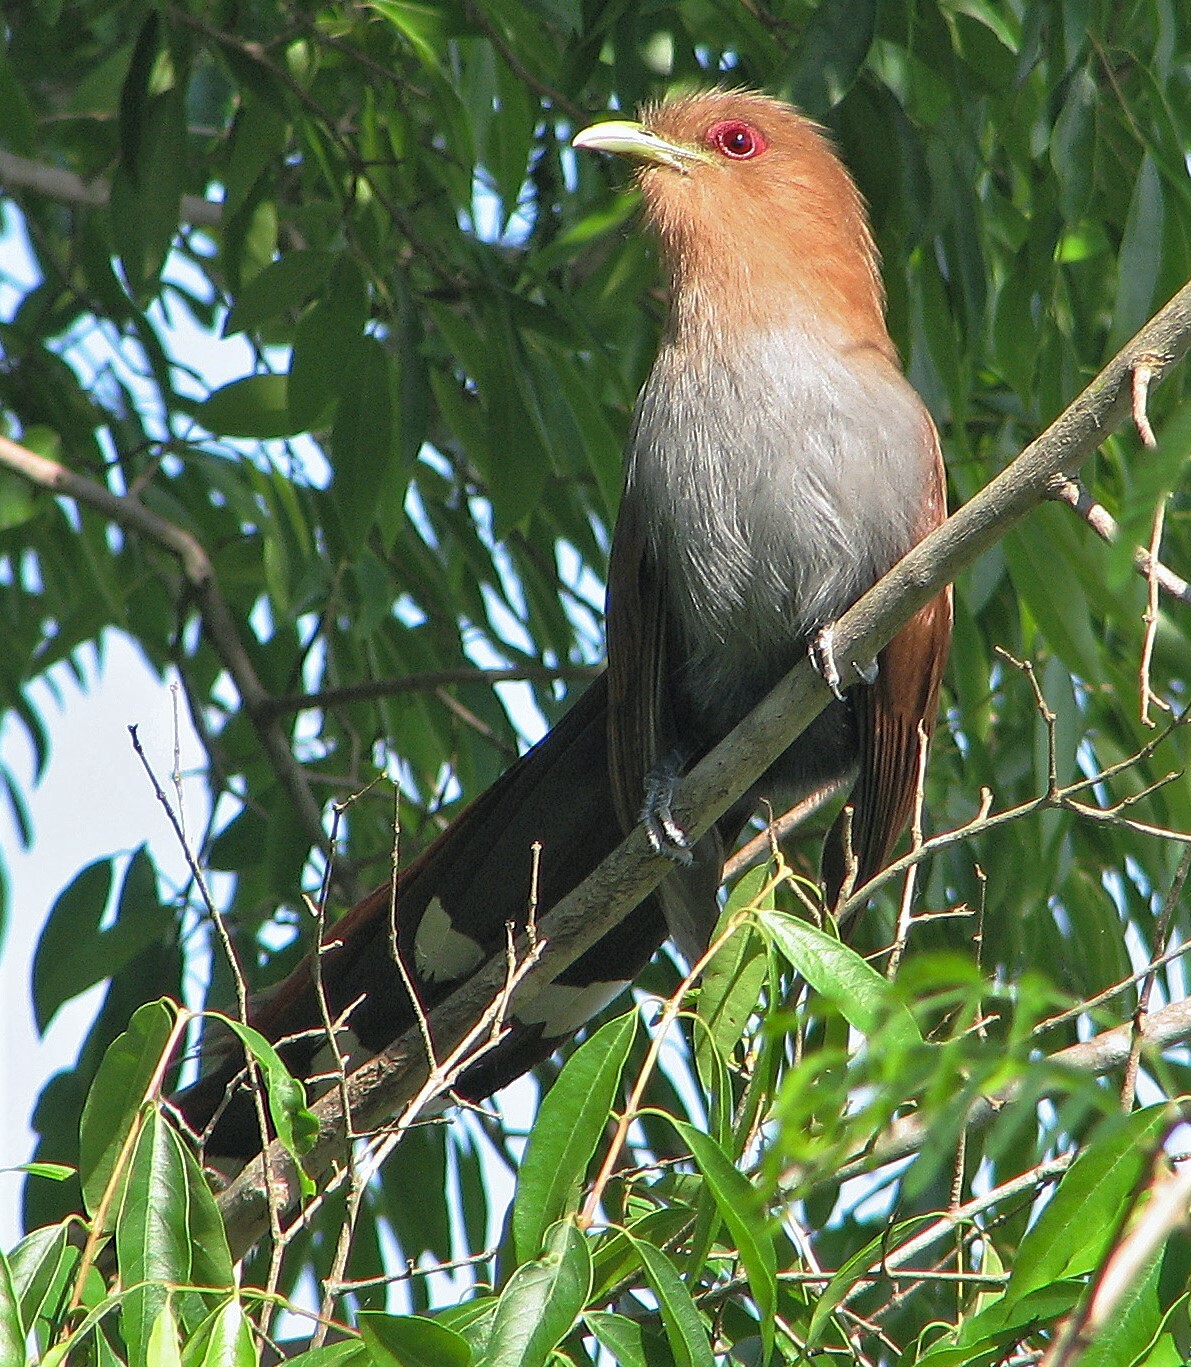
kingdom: Animalia
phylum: Chordata
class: Aves
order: Cuculiformes
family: Cuculidae
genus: Piaya
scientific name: Piaya cayana
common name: Squirrel cuckoo
